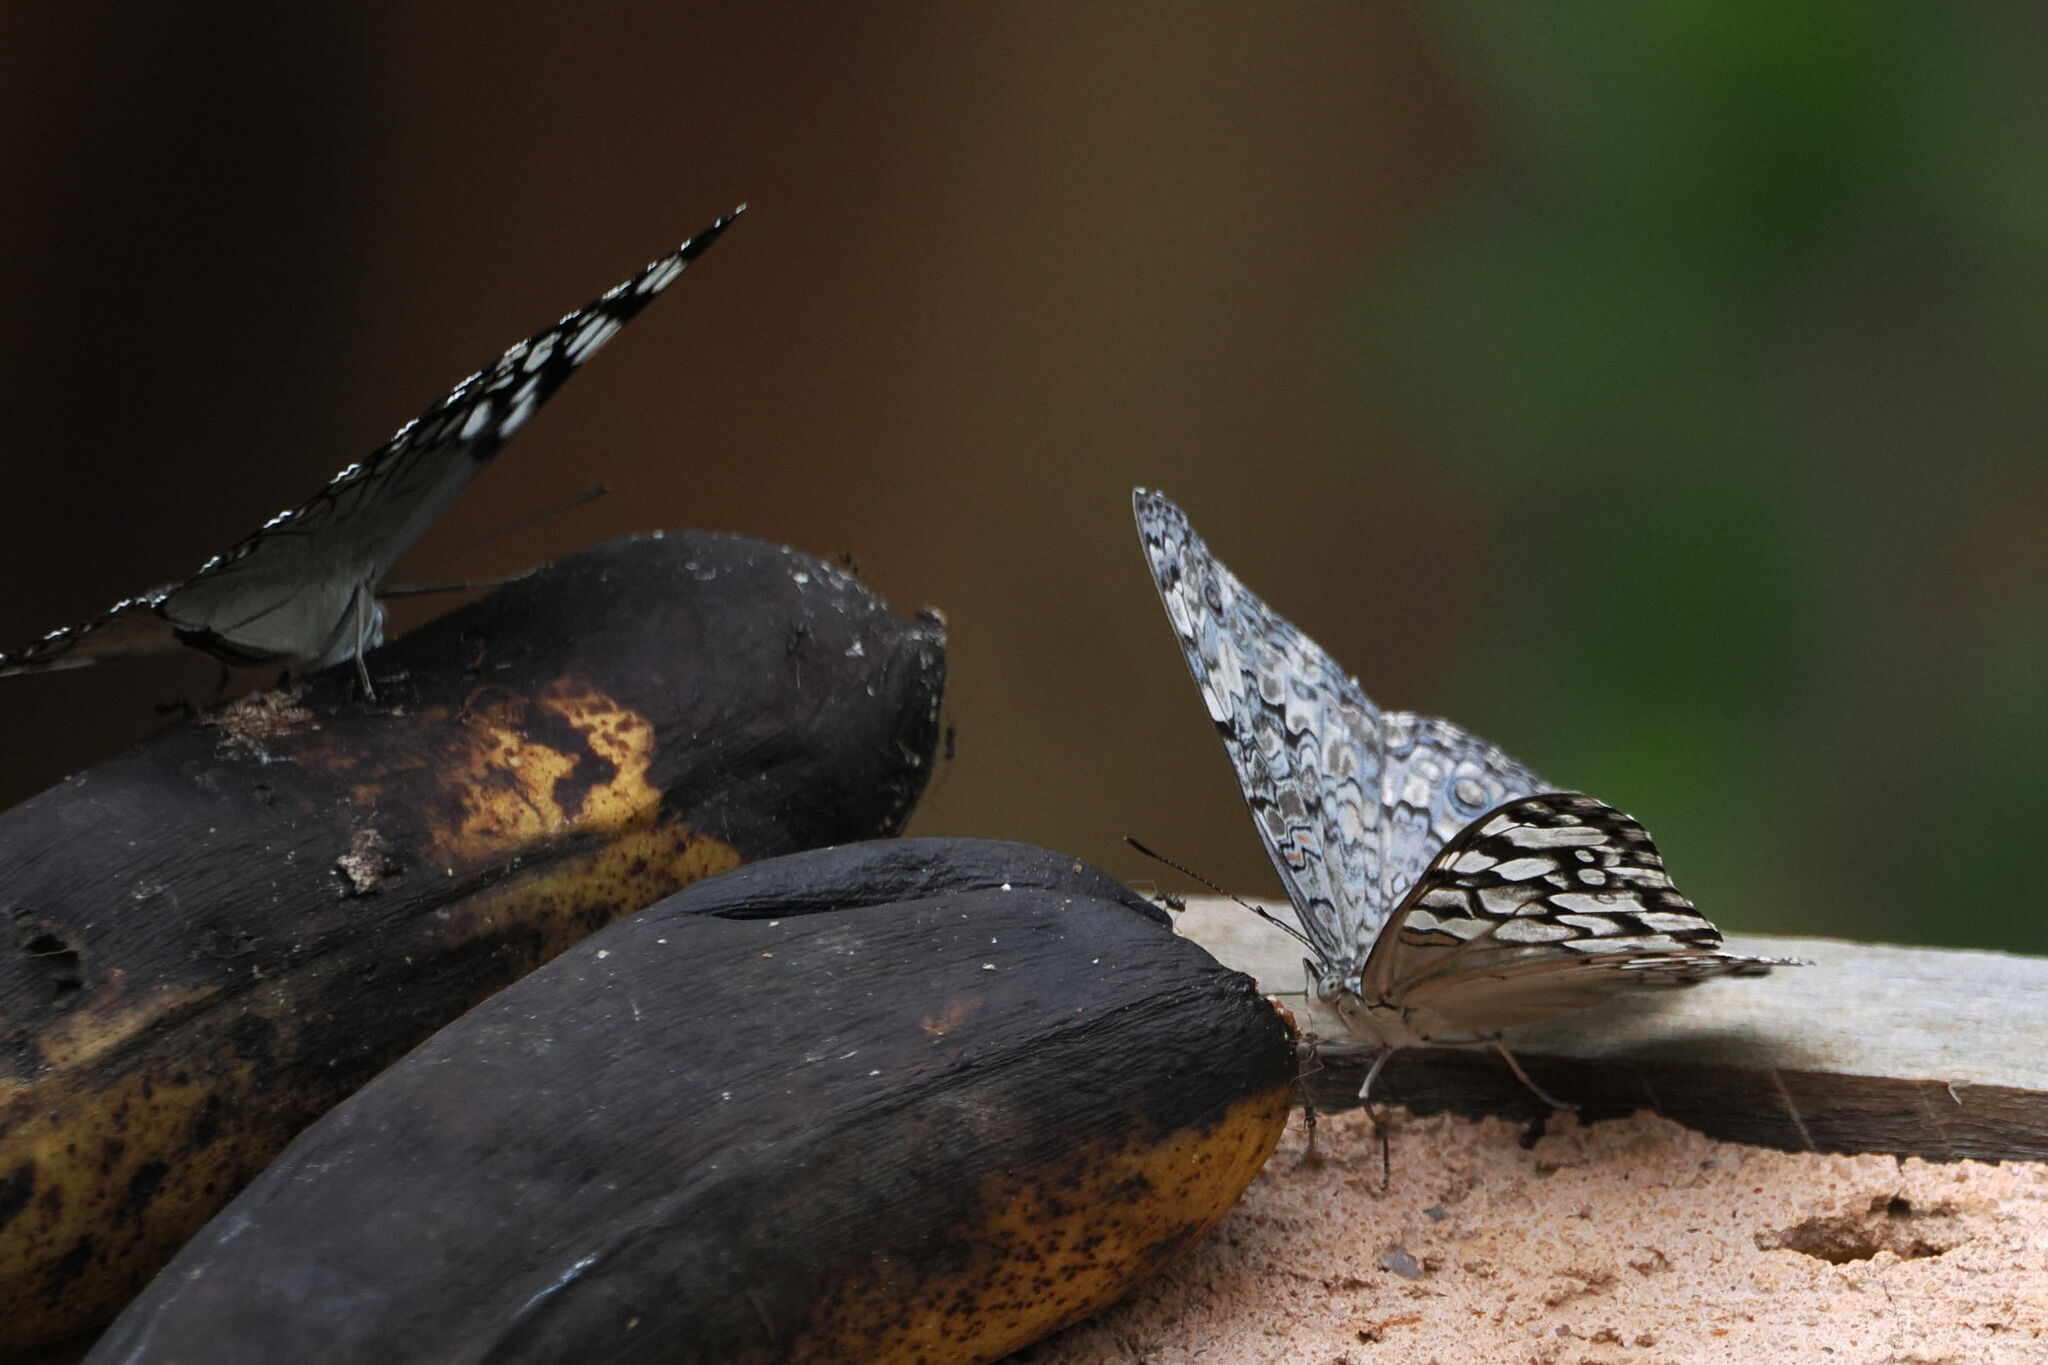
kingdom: Animalia
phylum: Arthropoda
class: Insecta
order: Lepidoptera
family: Nymphalidae
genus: Hamadryas
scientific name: Hamadryas februa
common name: Gray cracker
